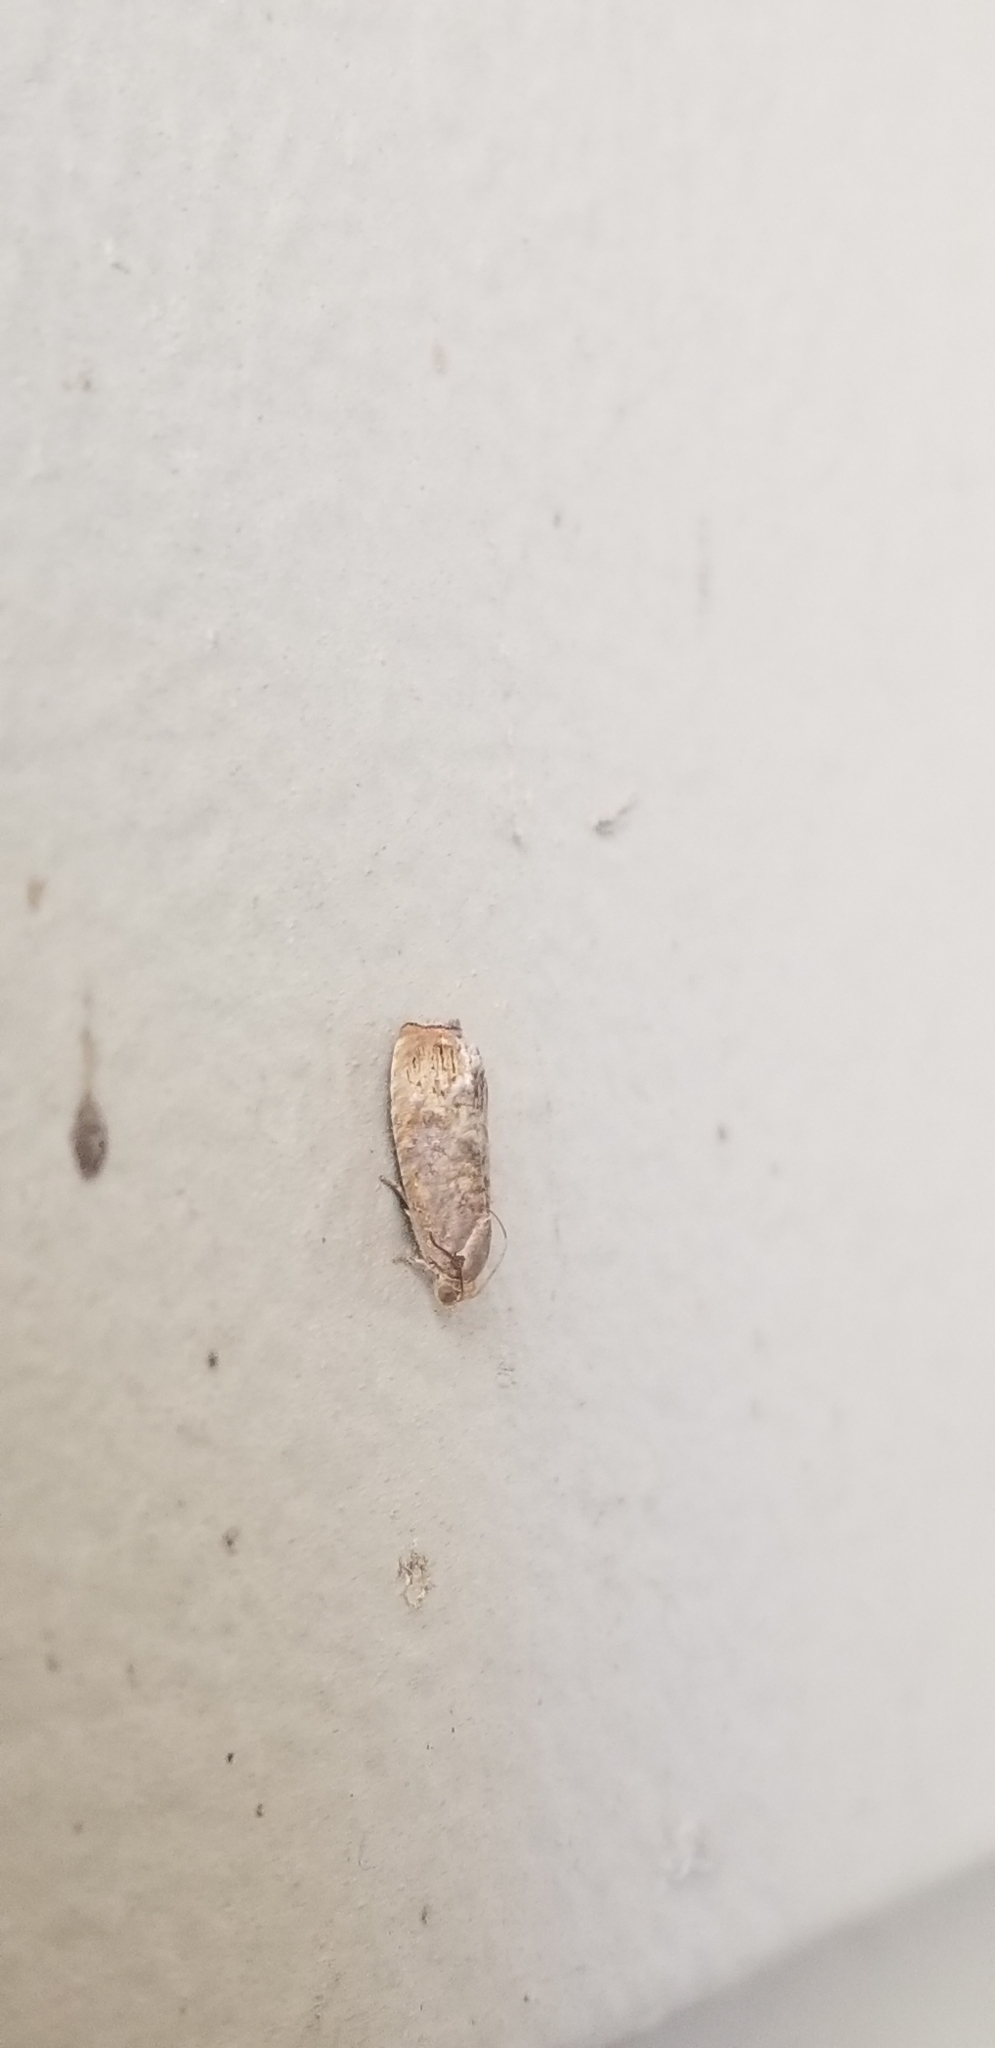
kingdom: Animalia
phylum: Arthropoda
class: Insecta
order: Lepidoptera
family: Tortricidae
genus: Cydia
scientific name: Cydia latiferreana
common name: Filbertworm moth
